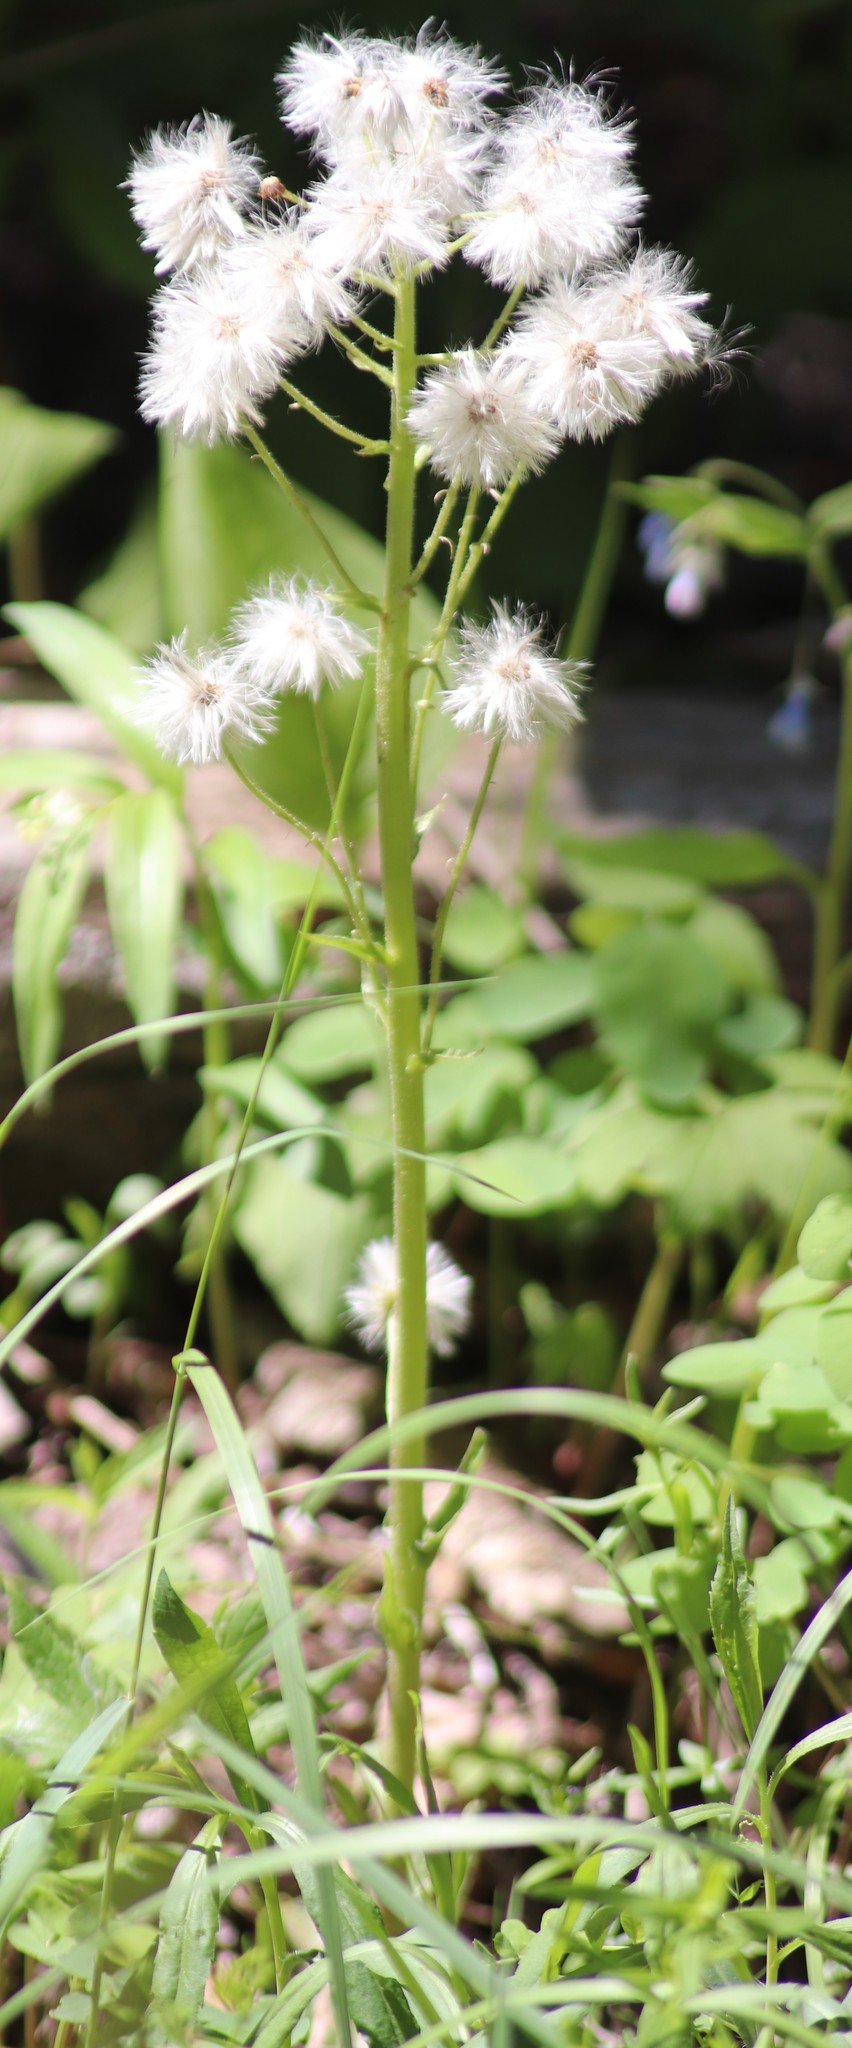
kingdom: Plantae
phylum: Tracheophyta
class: Magnoliopsida
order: Asterales
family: Asteraceae
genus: Petasites
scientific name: Petasites frigidus
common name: Arctic butterbur
